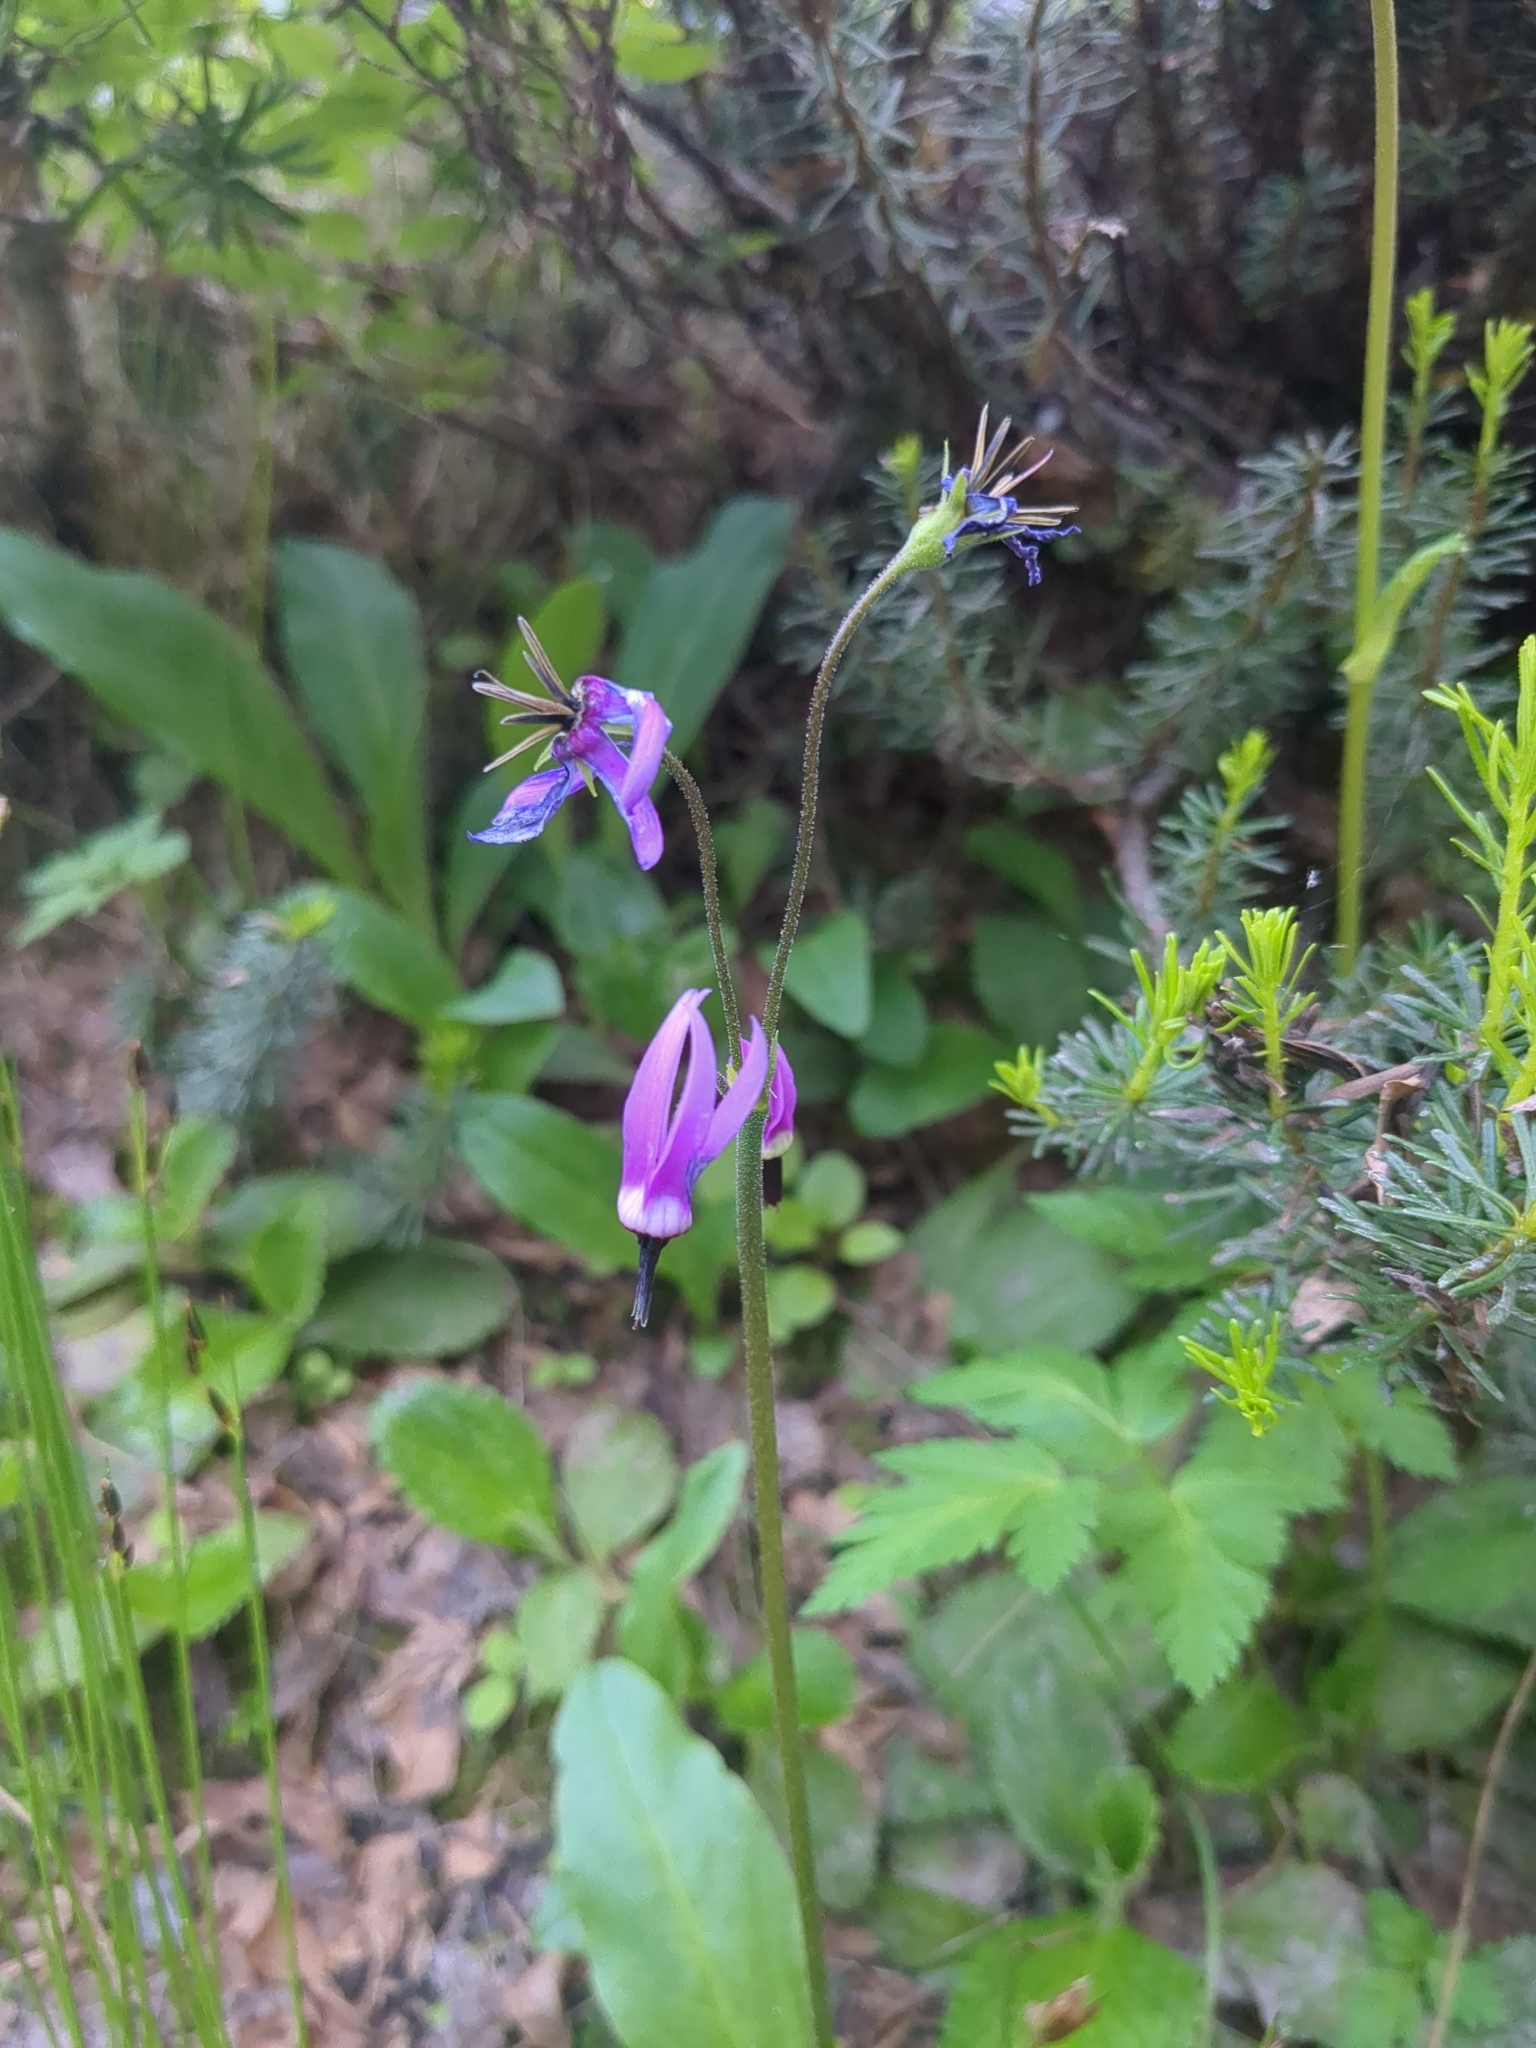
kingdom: Plantae
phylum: Tracheophyta
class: Magnoliopsida
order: Ericales
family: Primulaceae
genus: Dodecatheon
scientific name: Dodecatheon jeffreyanum
